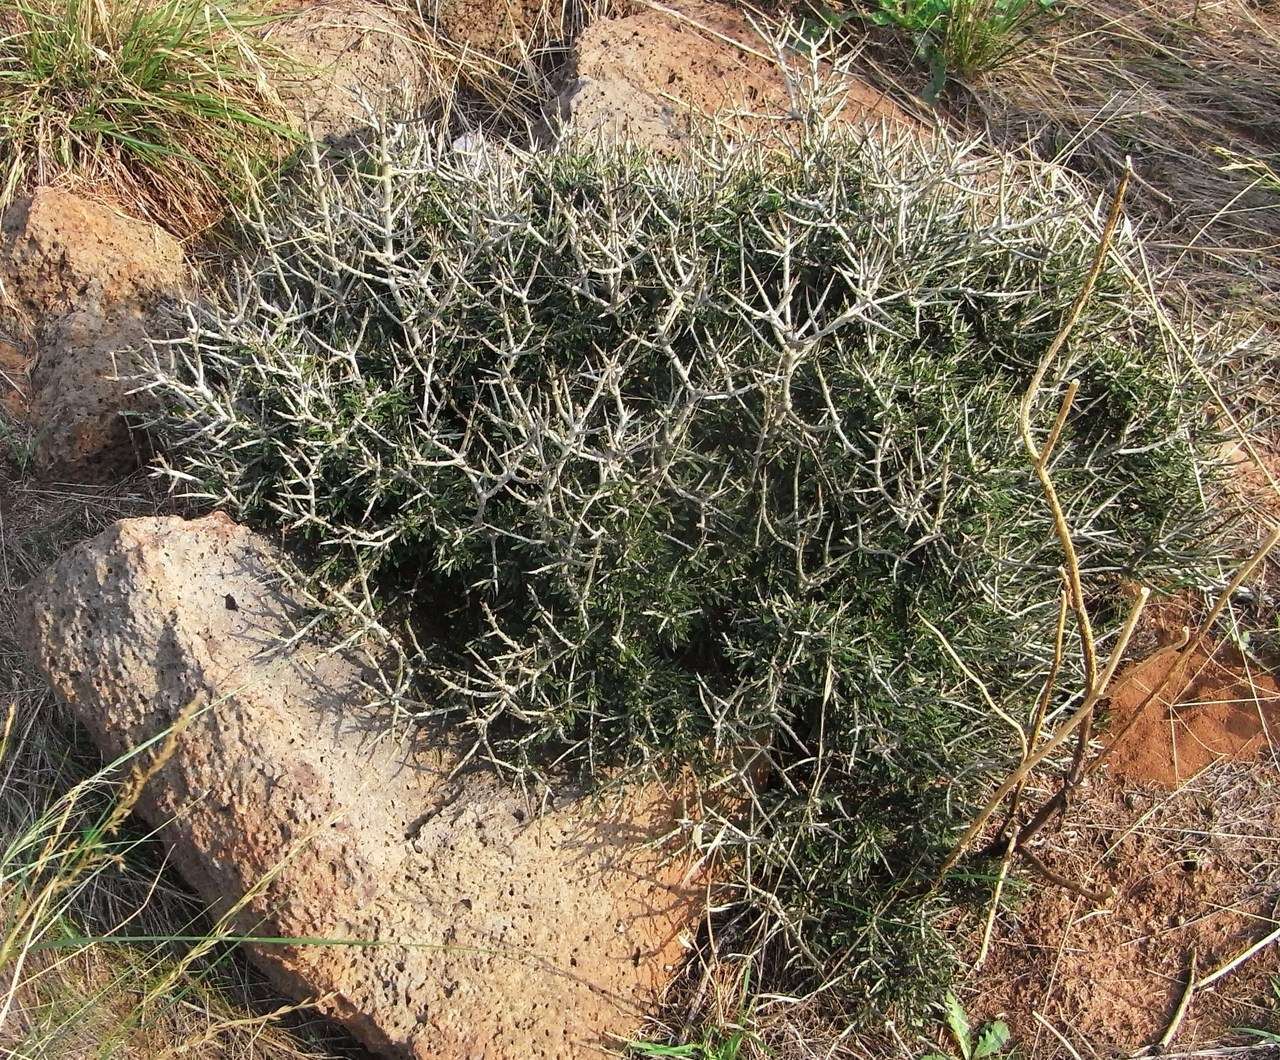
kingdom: Plantae
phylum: Tracheophyta
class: Magnoliopsida
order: Malpighiales
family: Violaceae
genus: Melicytus
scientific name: Melicytus angustifolius
